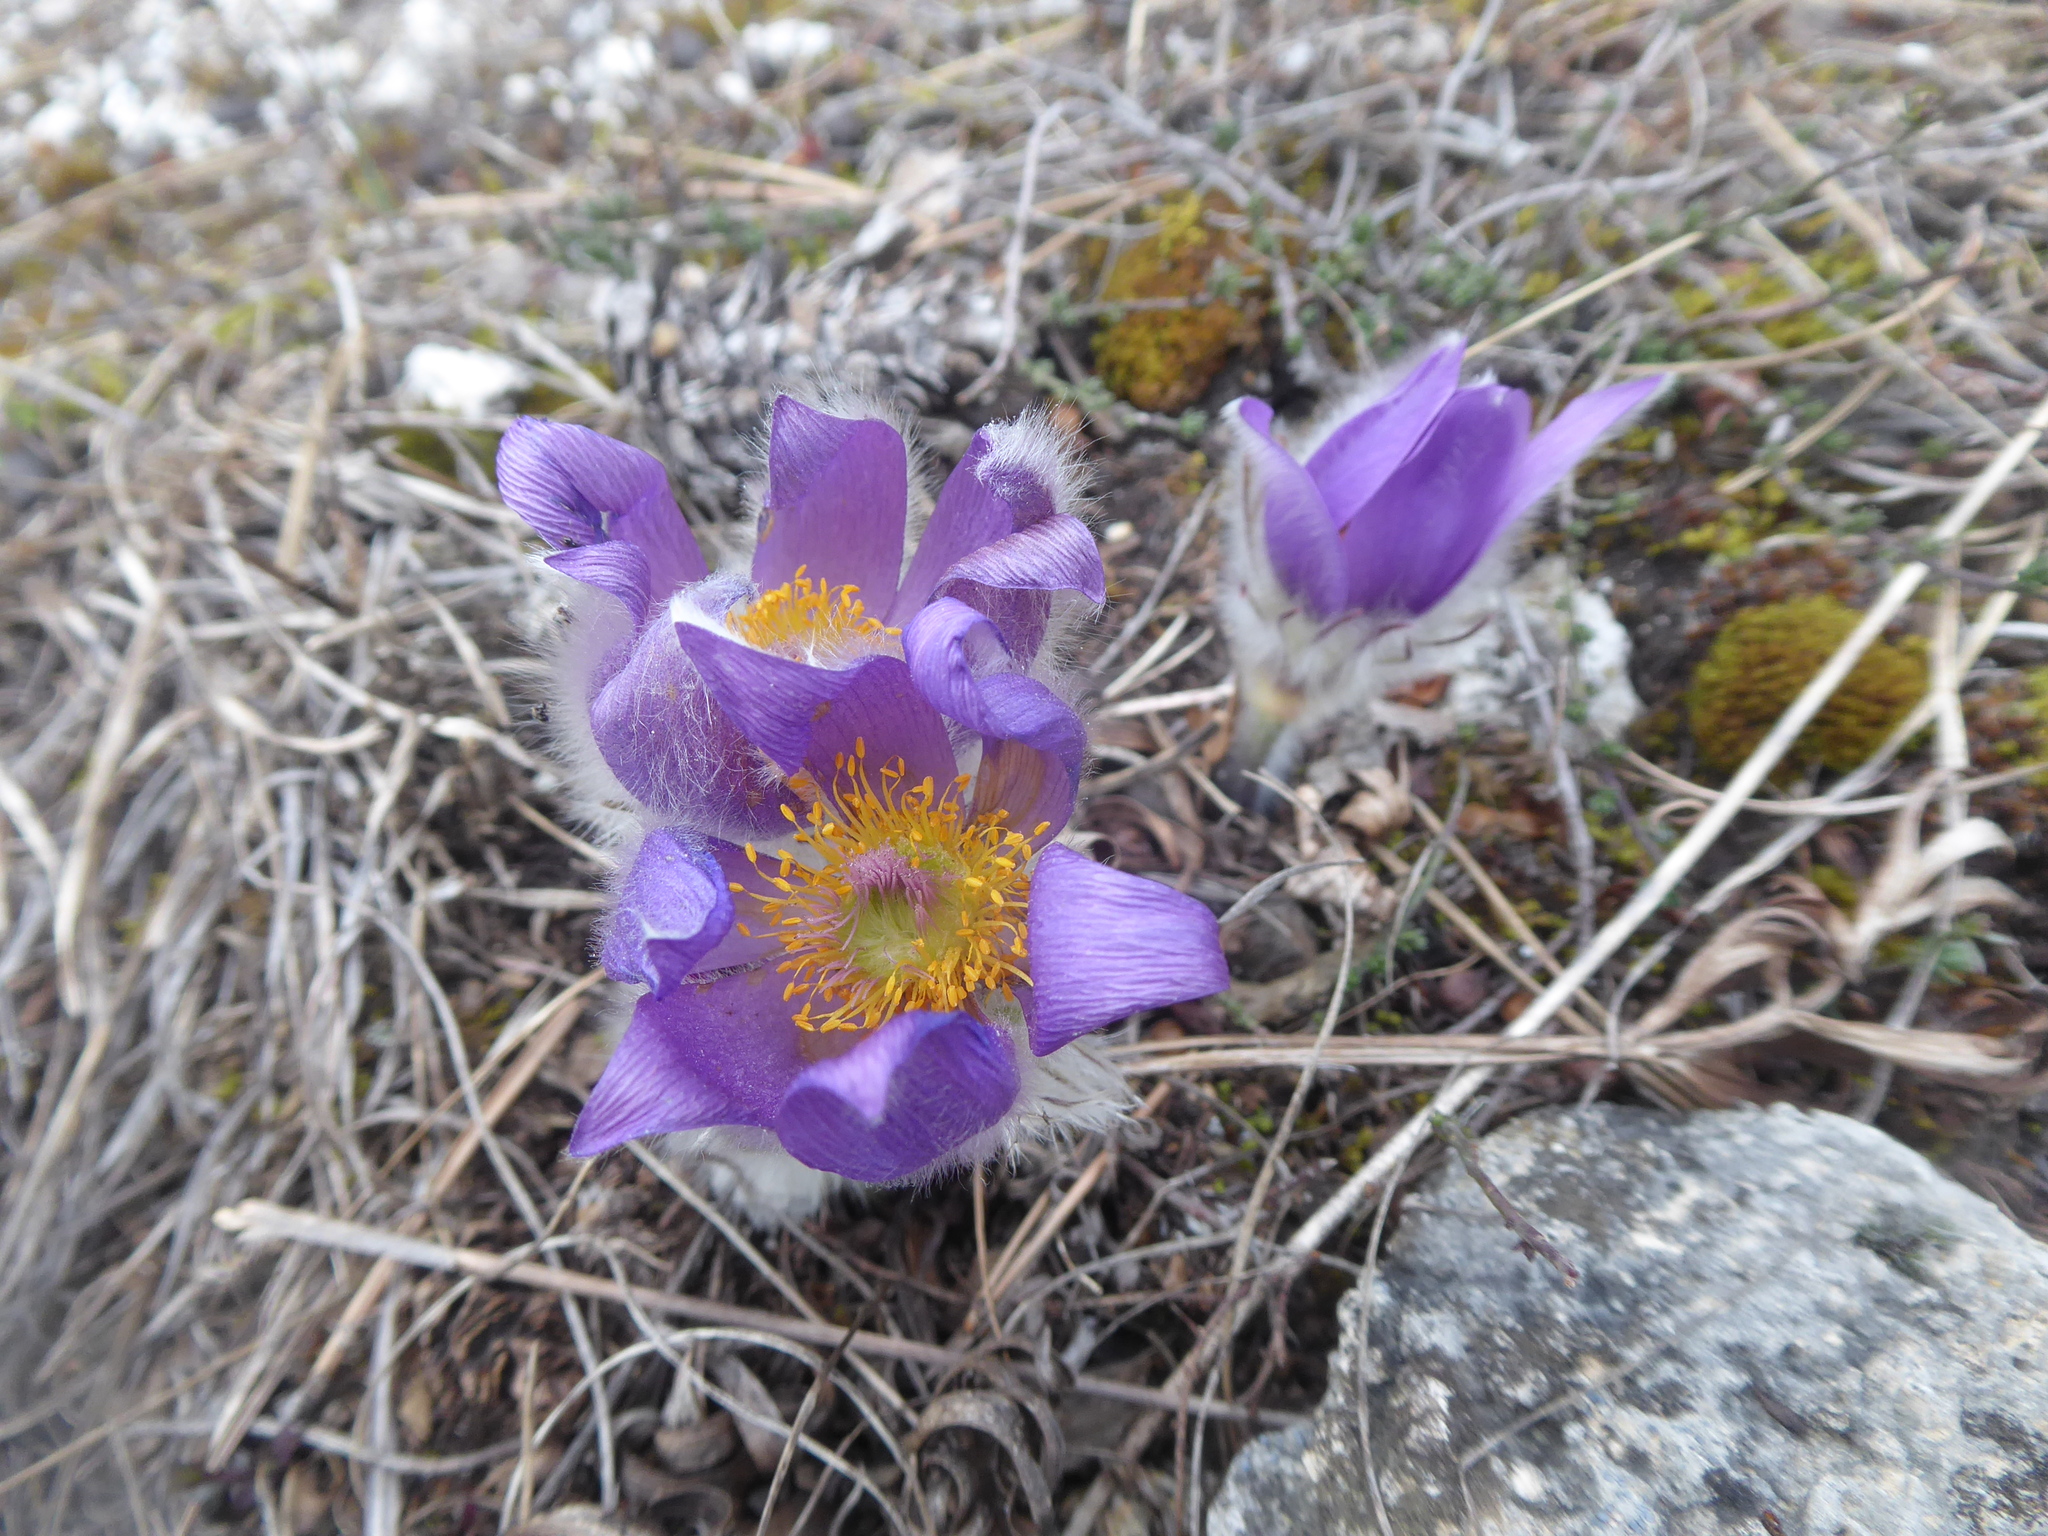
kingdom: Plantae
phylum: Tracheophyta
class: Magnoliopsida
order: Ranunculales
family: Ranunculaceae
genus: Pulsatilla
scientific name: Pulsatilla grandis
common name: Greater pasque flower
